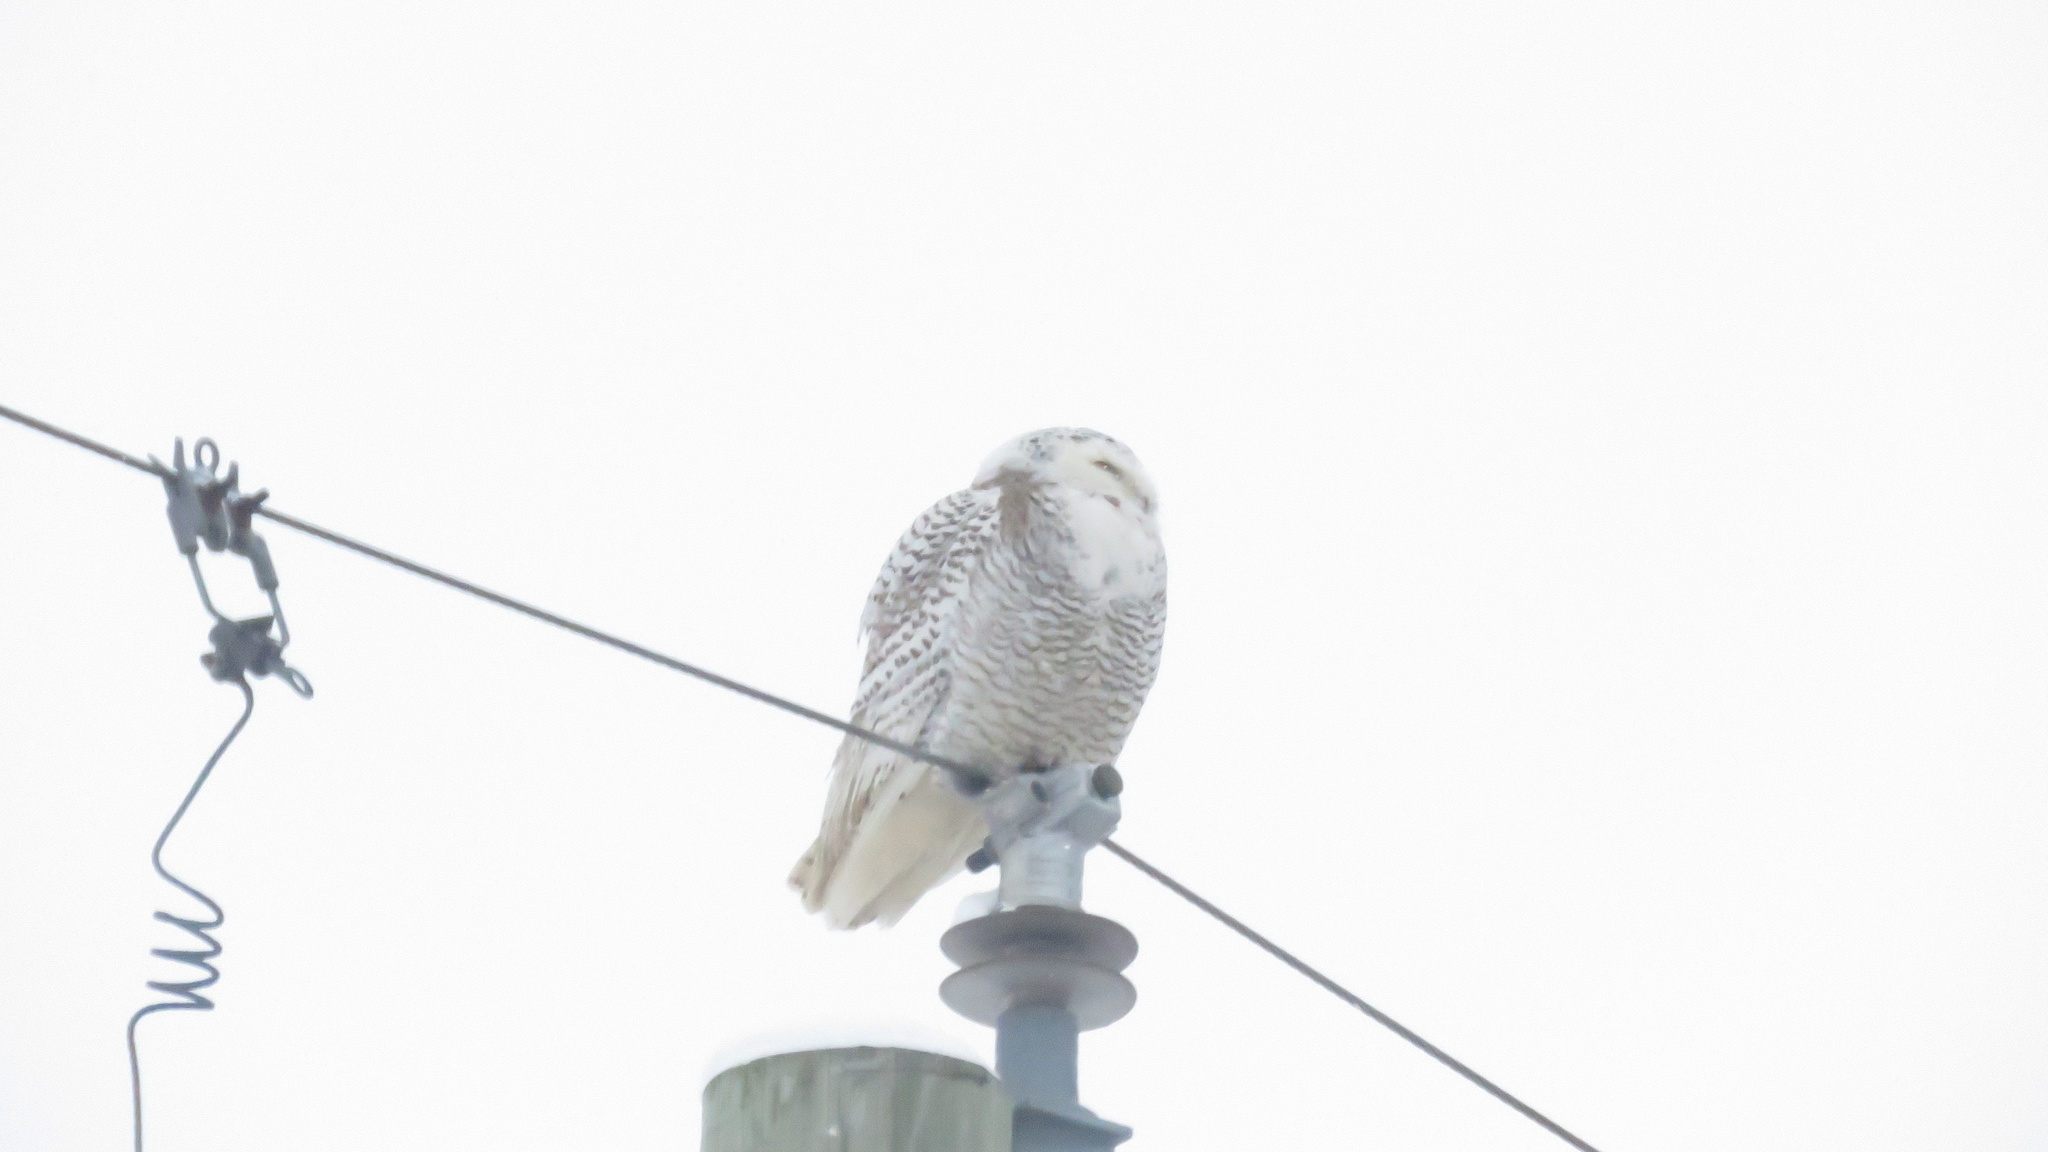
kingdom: Animalia
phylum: Chordata
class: Aves
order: Strigiformes
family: Strigidae
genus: Bubo
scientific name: Bubo scandiacus
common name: Snowy owl
